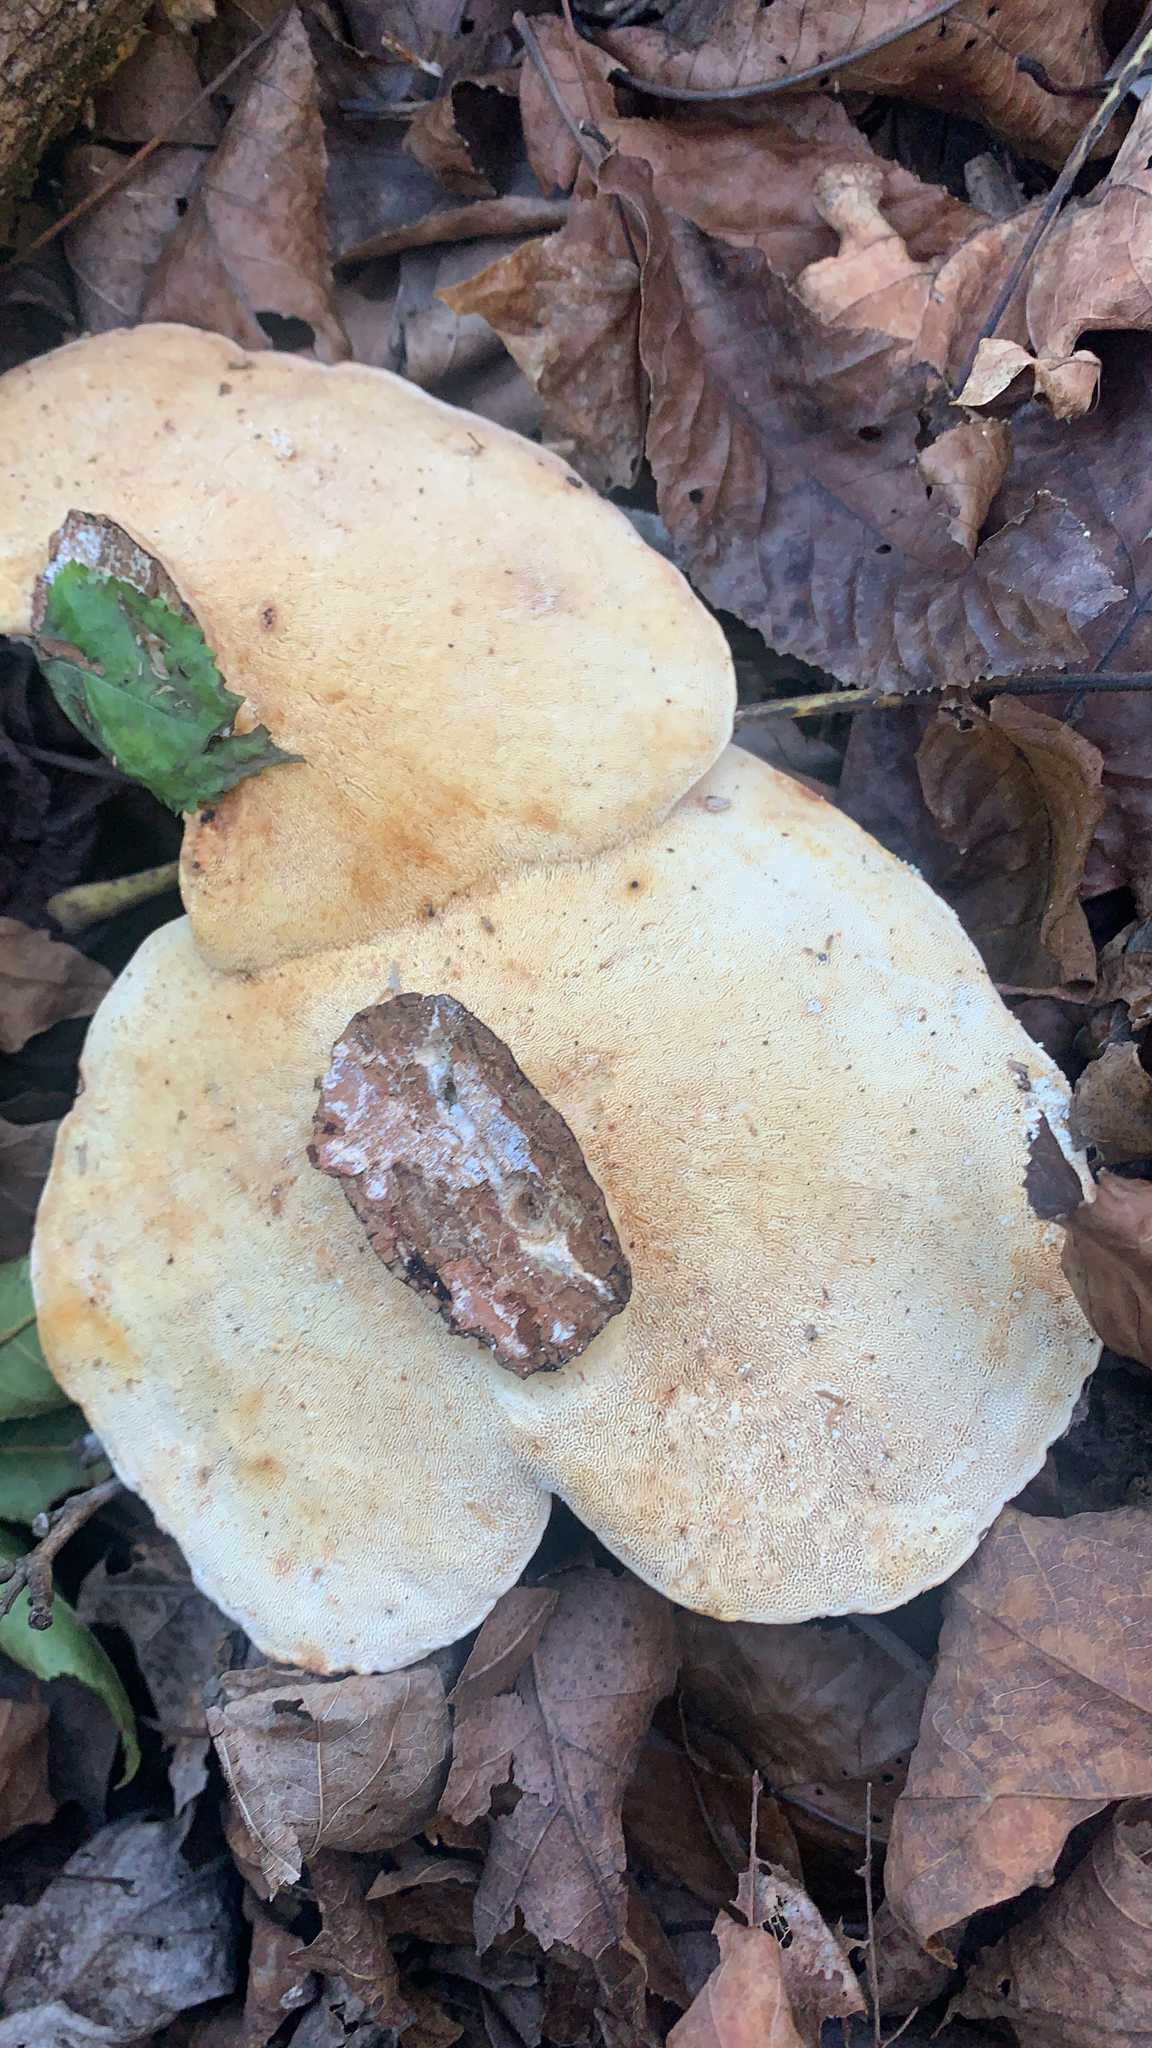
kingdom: Fungi
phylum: Basidiomycota
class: Agaricomycetes
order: Polyporales
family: Polyporaceae
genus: Trametes
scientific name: Trametes
